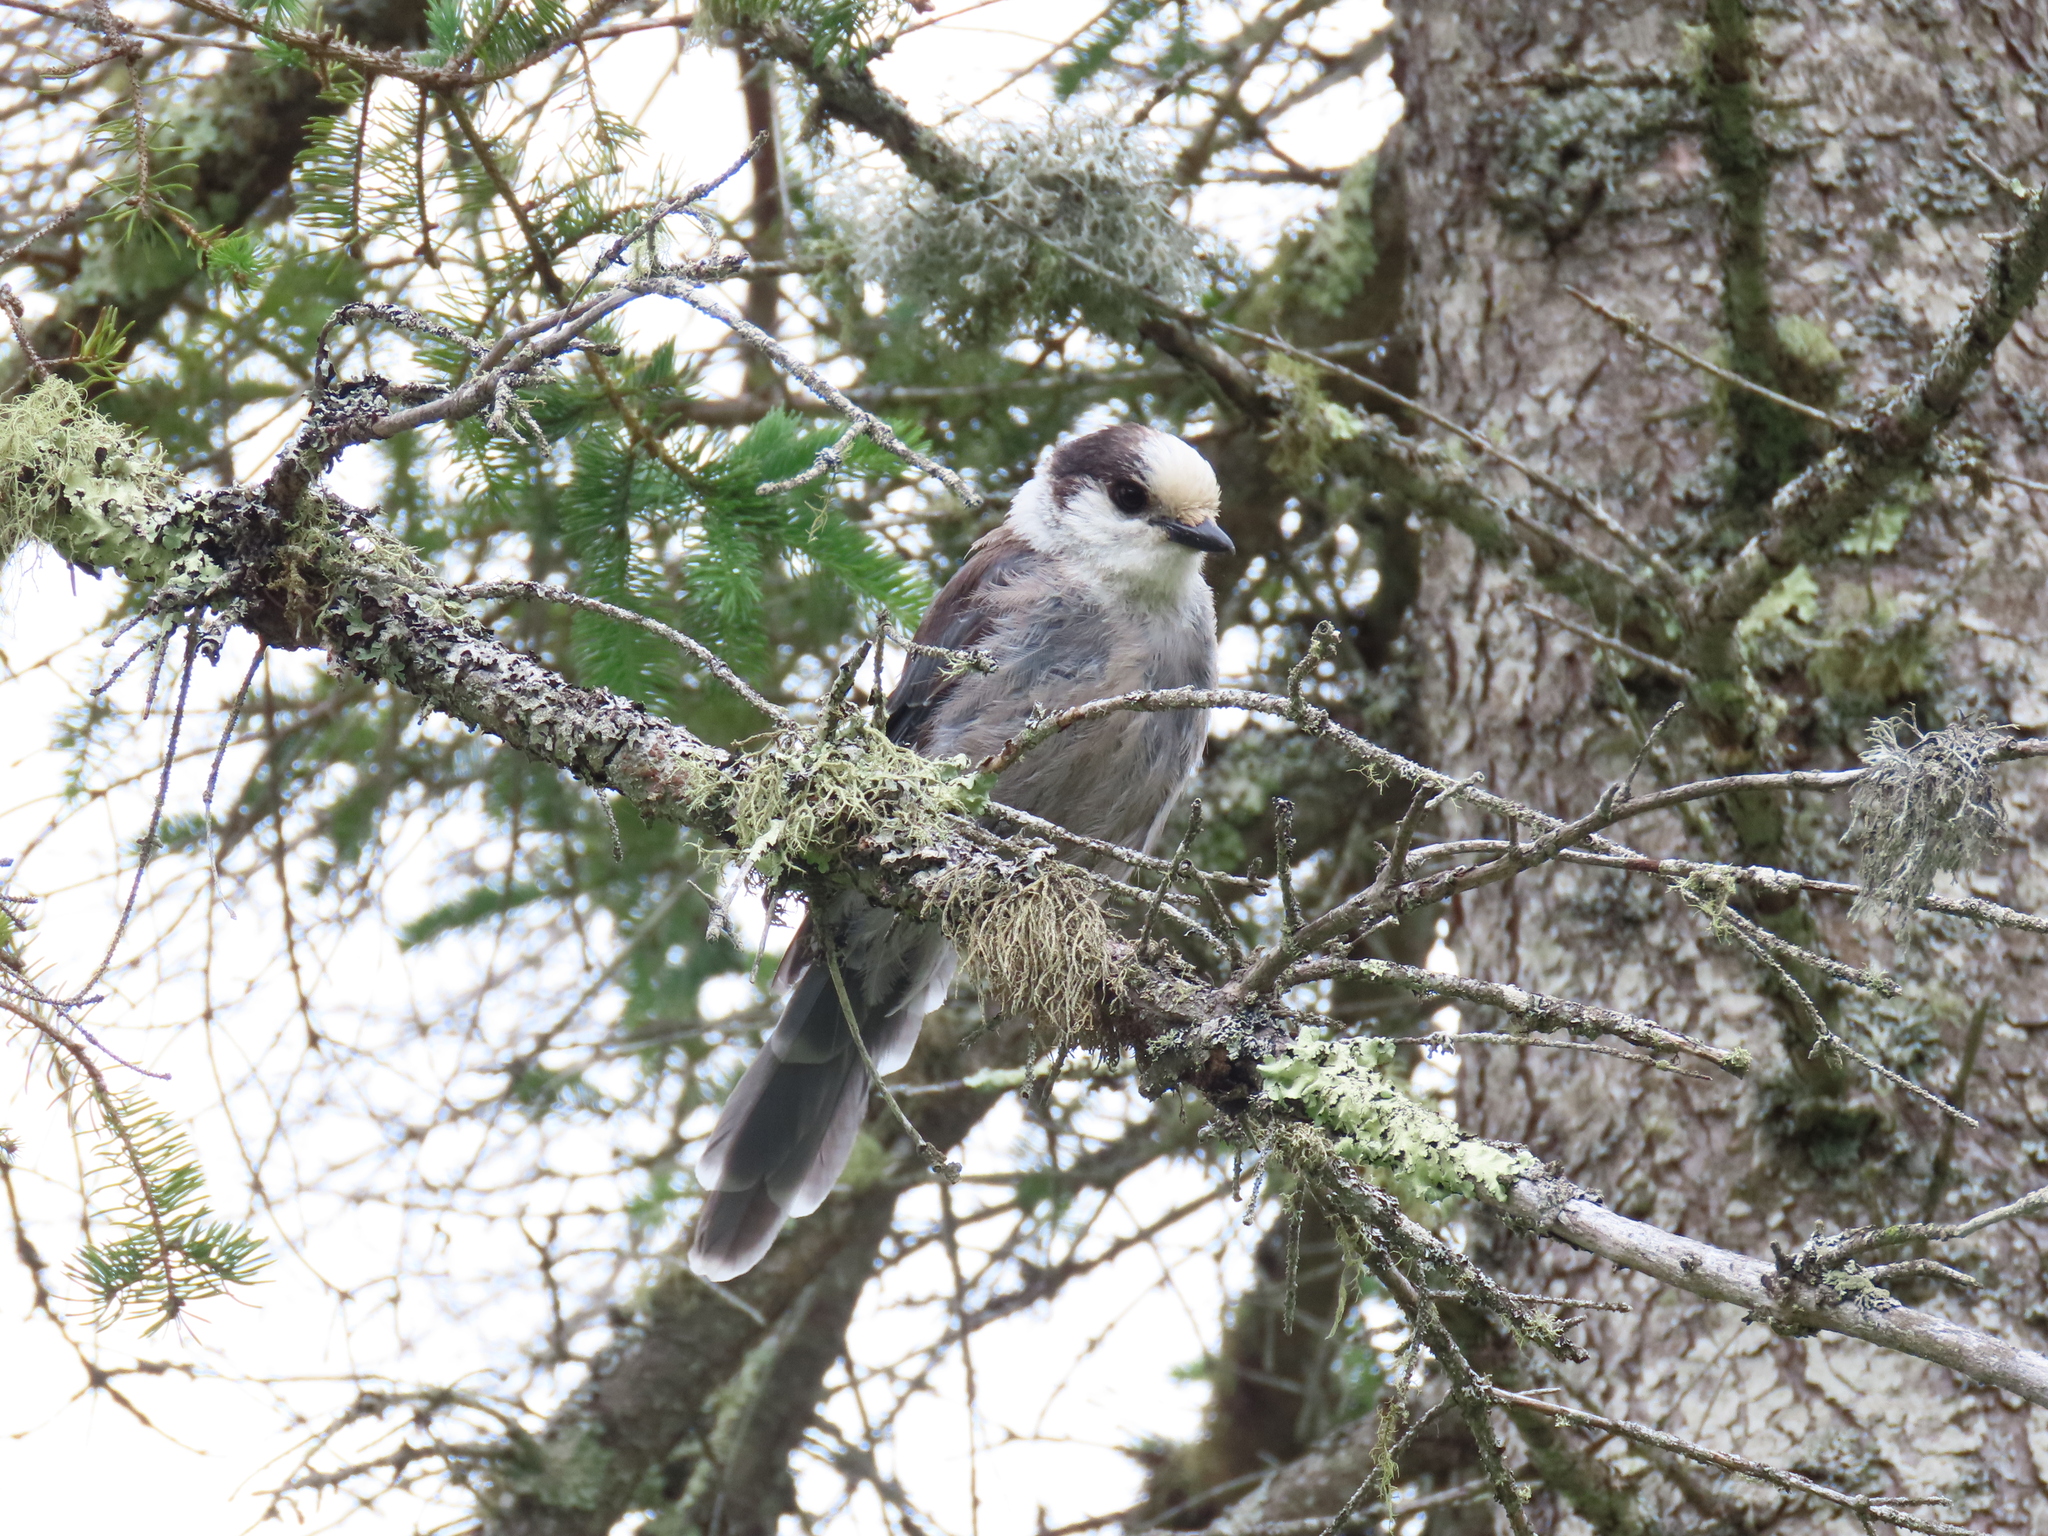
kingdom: Animalia
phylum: Chordata
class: Aves
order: Passeriformes
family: Corvidae
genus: Perisoreus
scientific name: Perisoreus canadensis
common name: Gray jay
